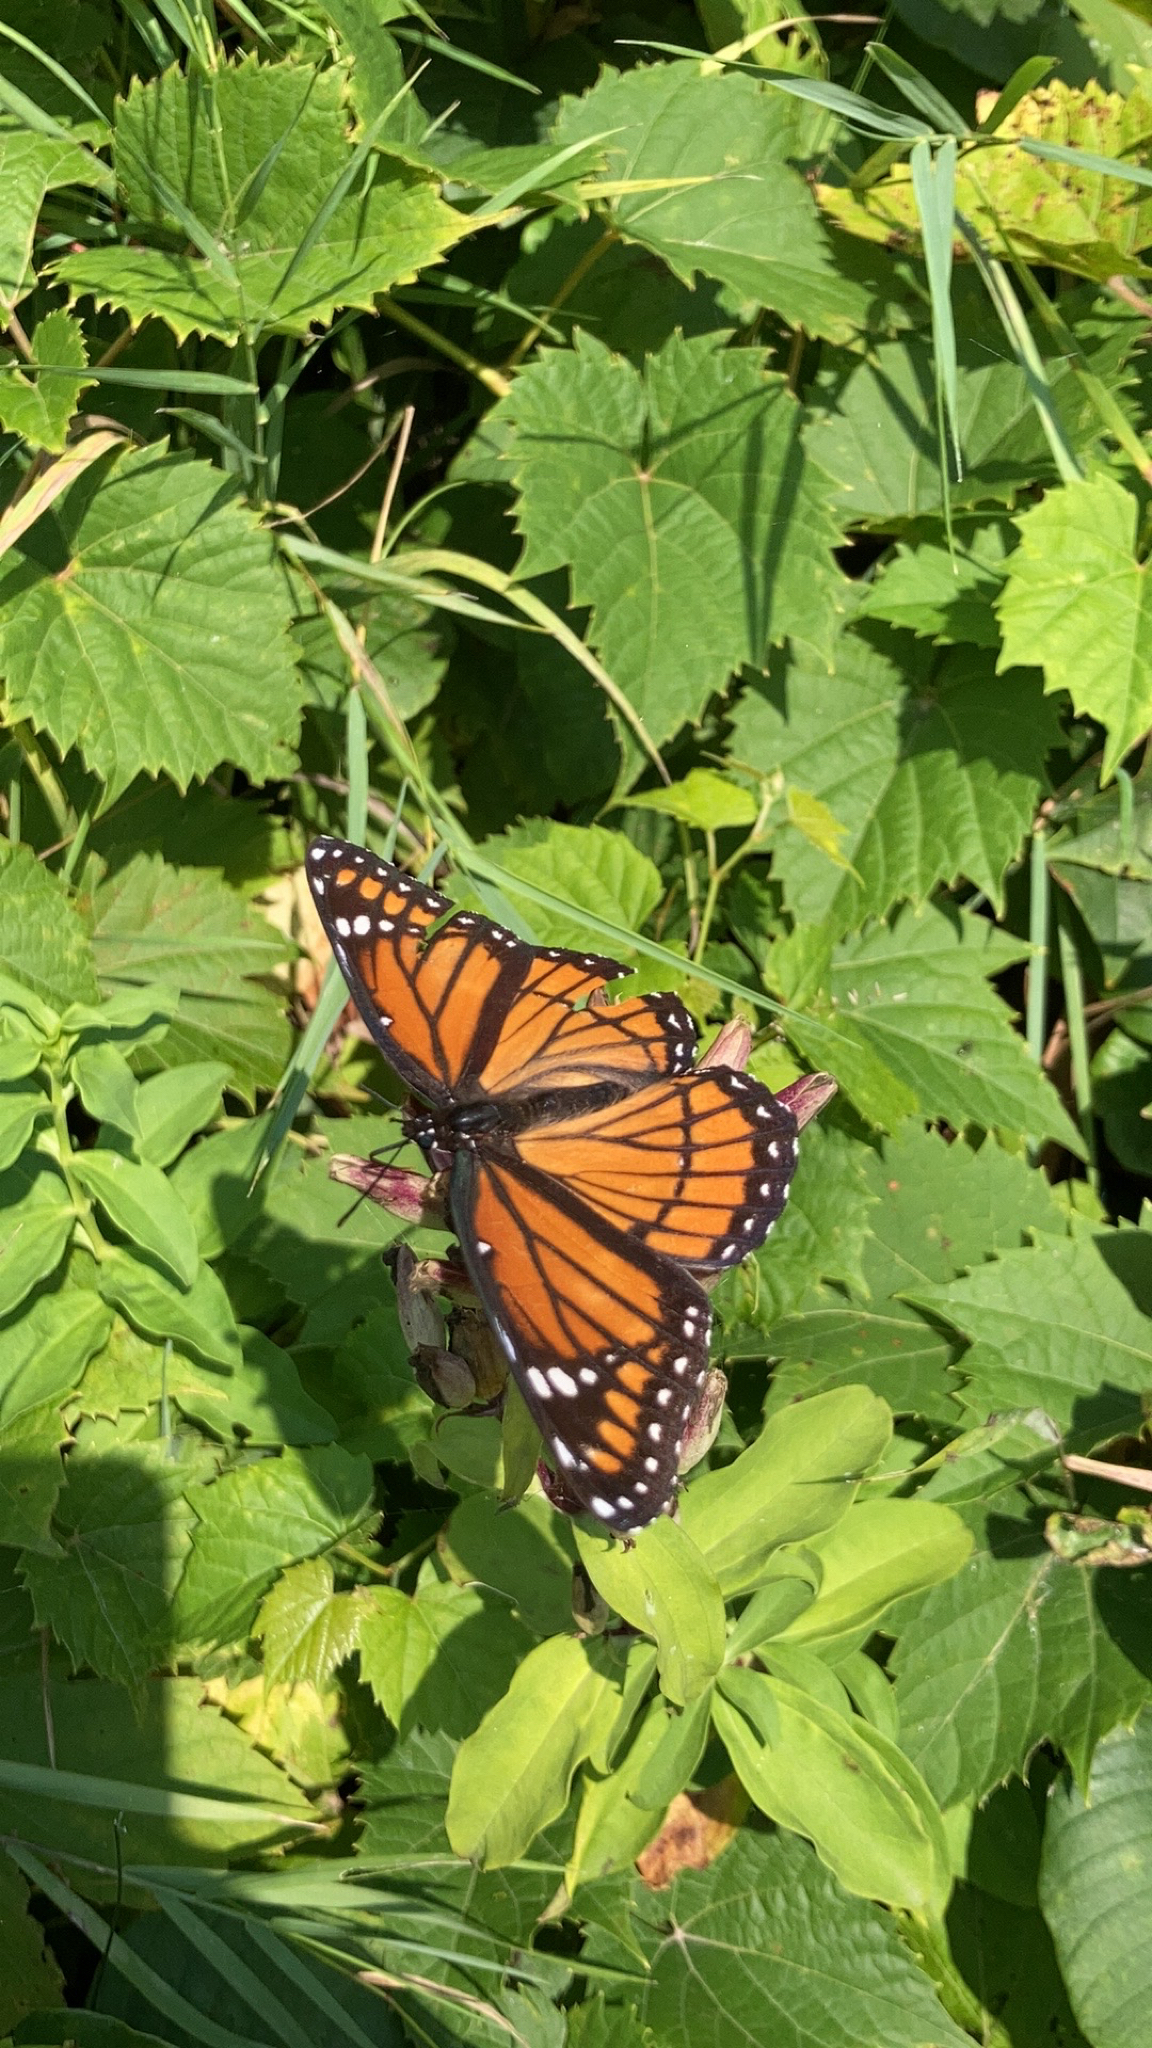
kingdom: Animalia
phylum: Arthropoda
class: Insecta
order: Lepidoptera
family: Nymphalidae
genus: Limenitis
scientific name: Limenitis archippus
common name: Viceroy
